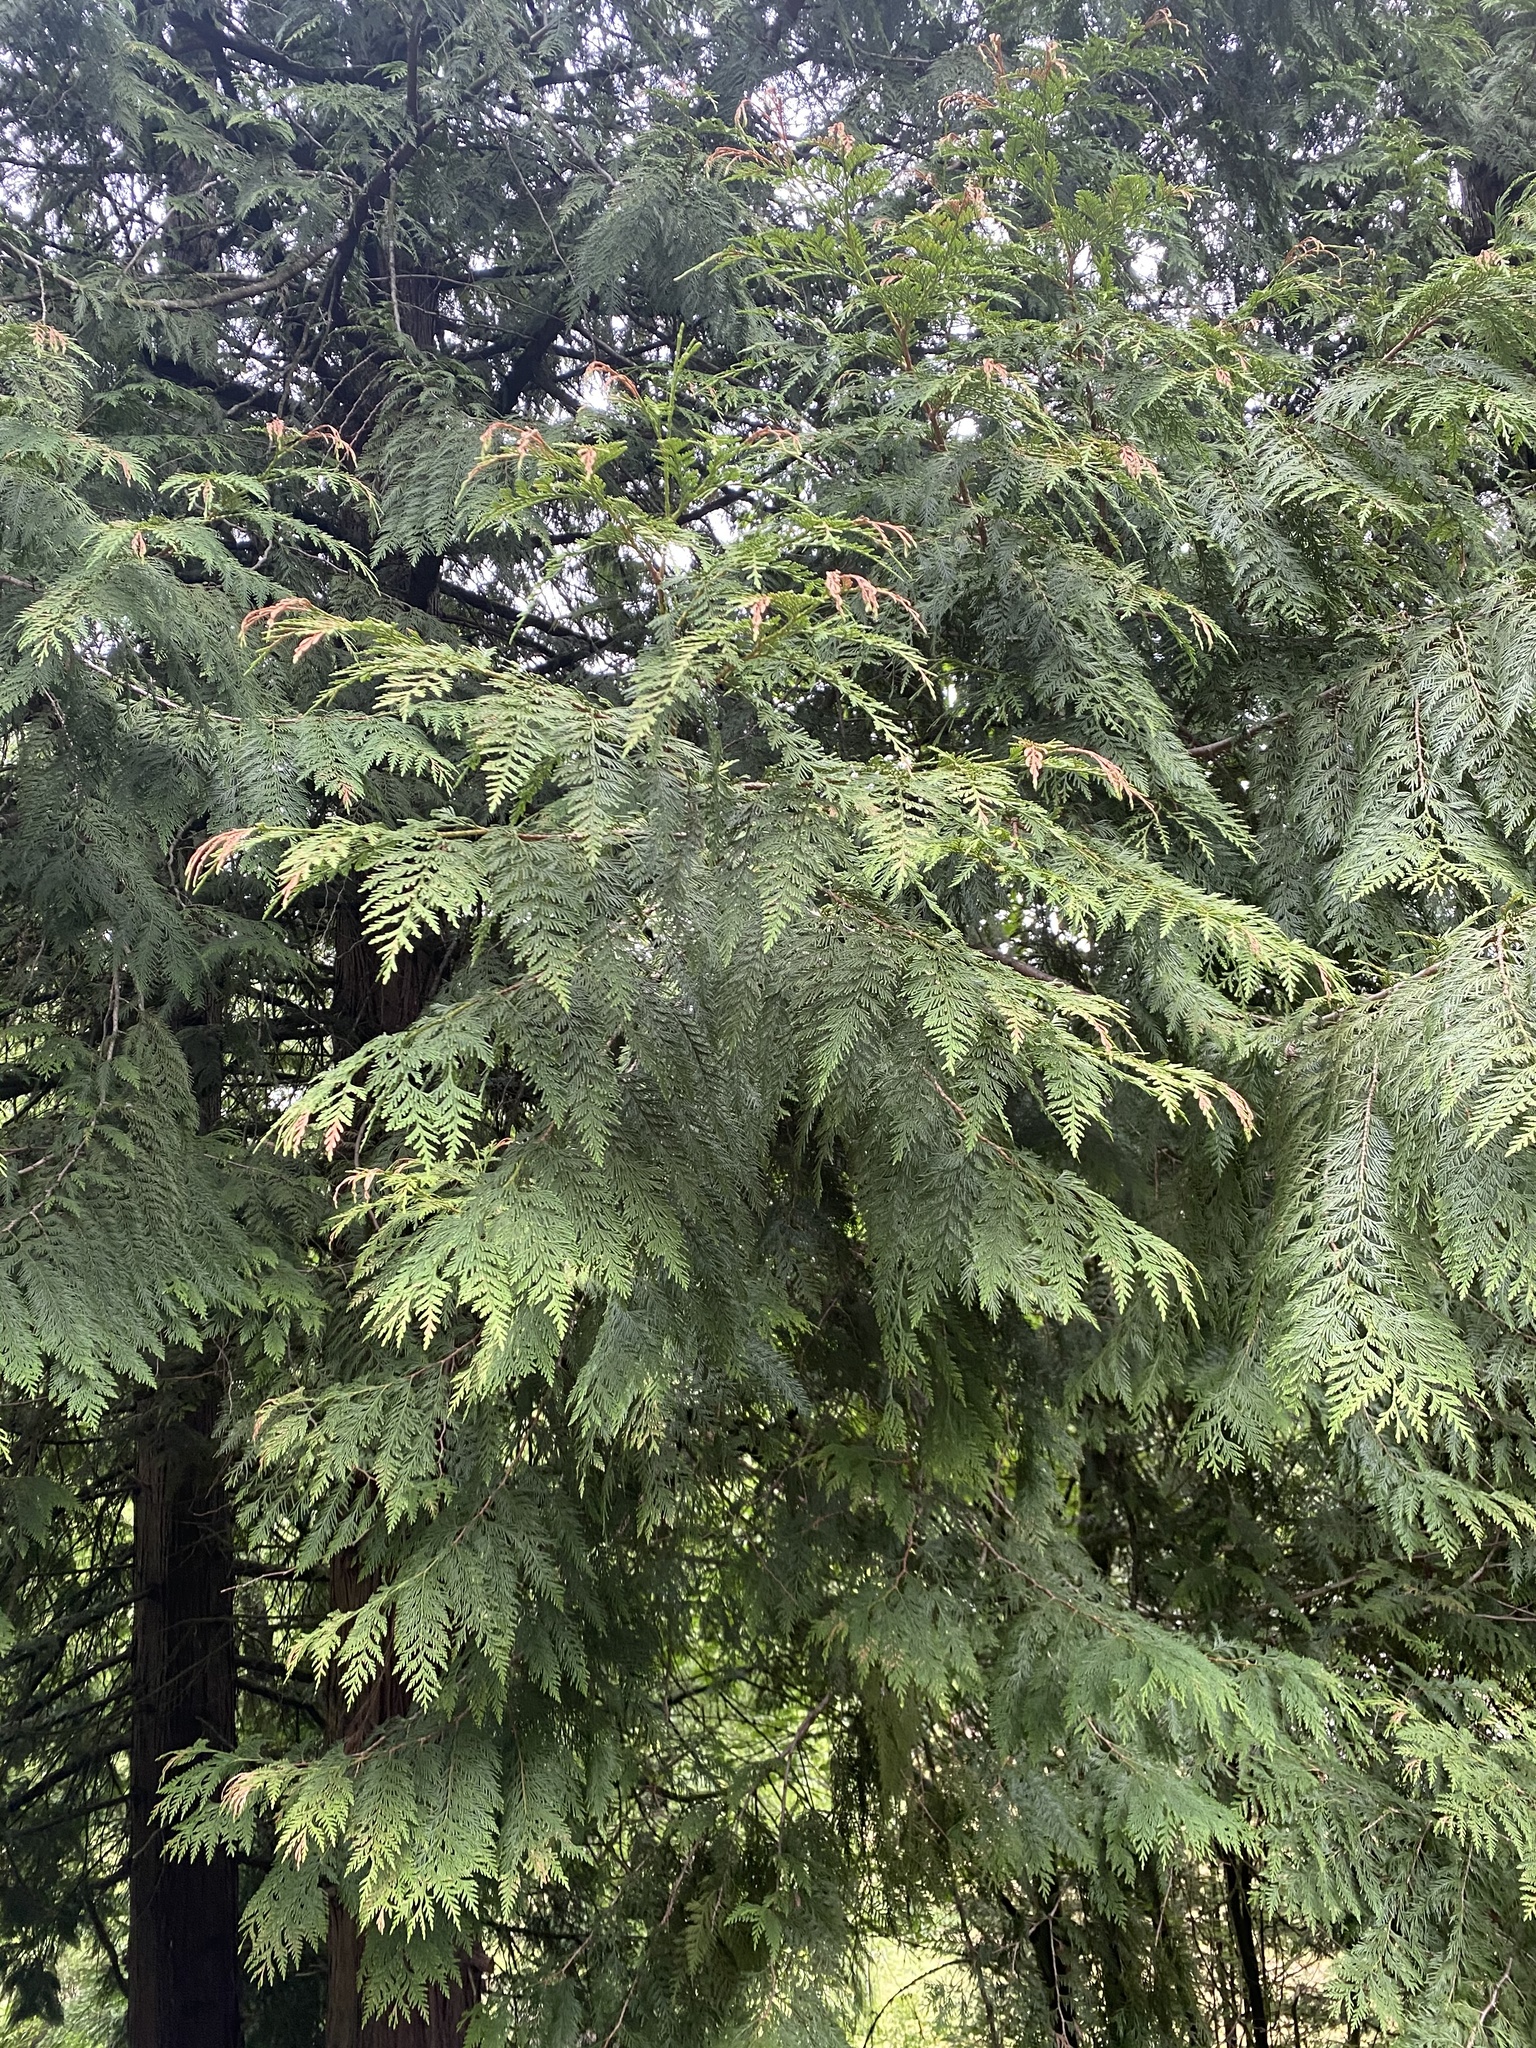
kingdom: Plantae
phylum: Tracheophyta
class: Pinopsida
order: Pinales
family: Cupressaceae
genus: Thuja
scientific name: Thuja plicata
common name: Western red-cedar
